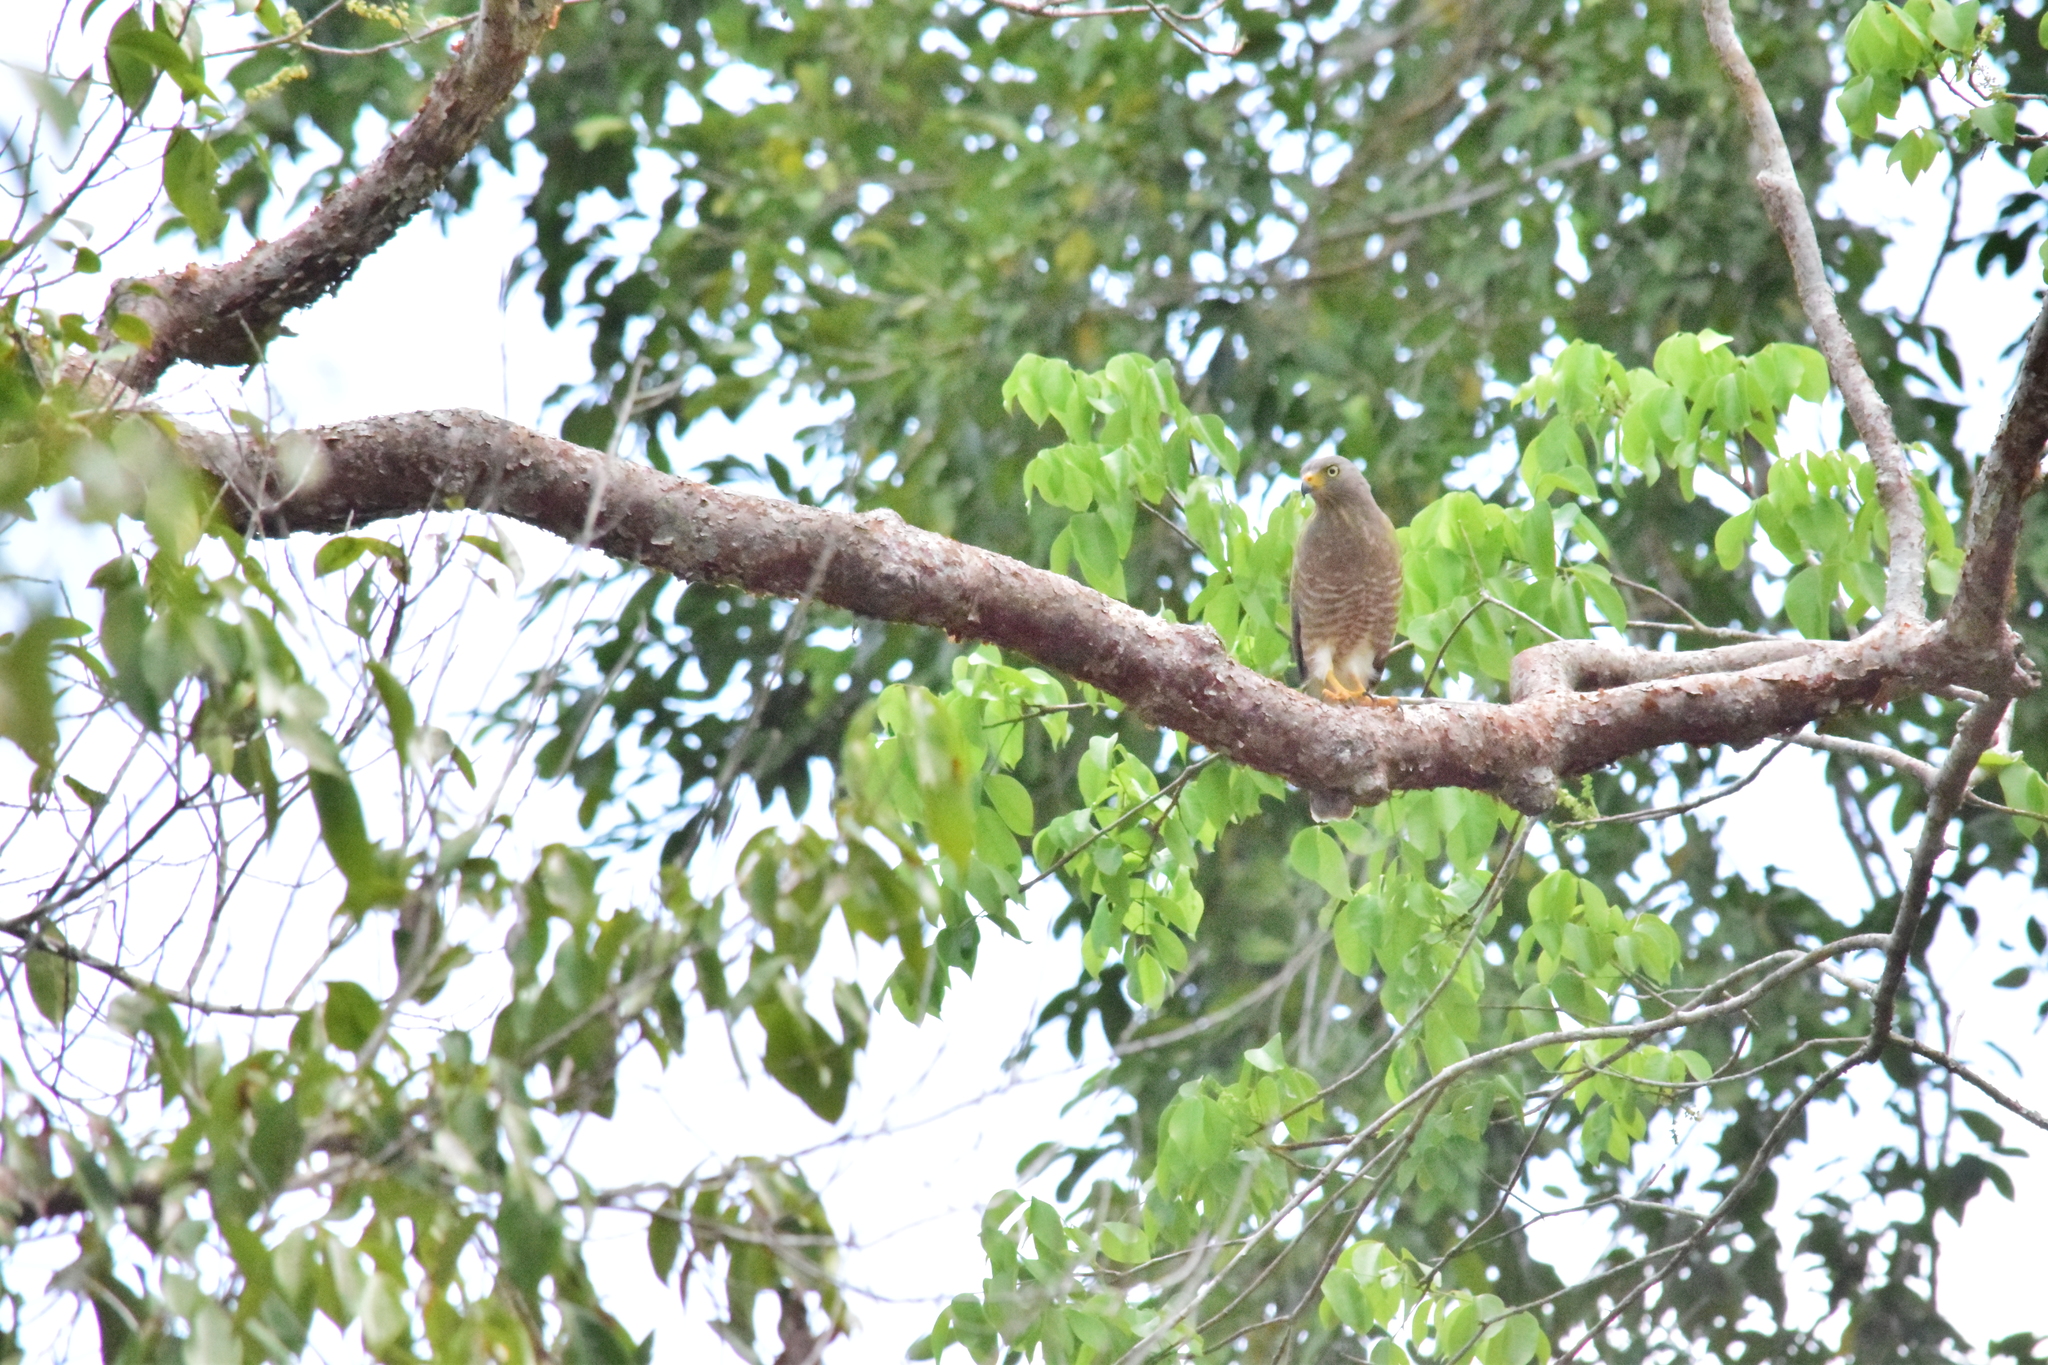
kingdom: Animalia
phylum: Chordata
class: Aves
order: Accipitriformes
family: Accipitridae
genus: Rupornis
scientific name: Rupornis magnirostris
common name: Roadside hawk
